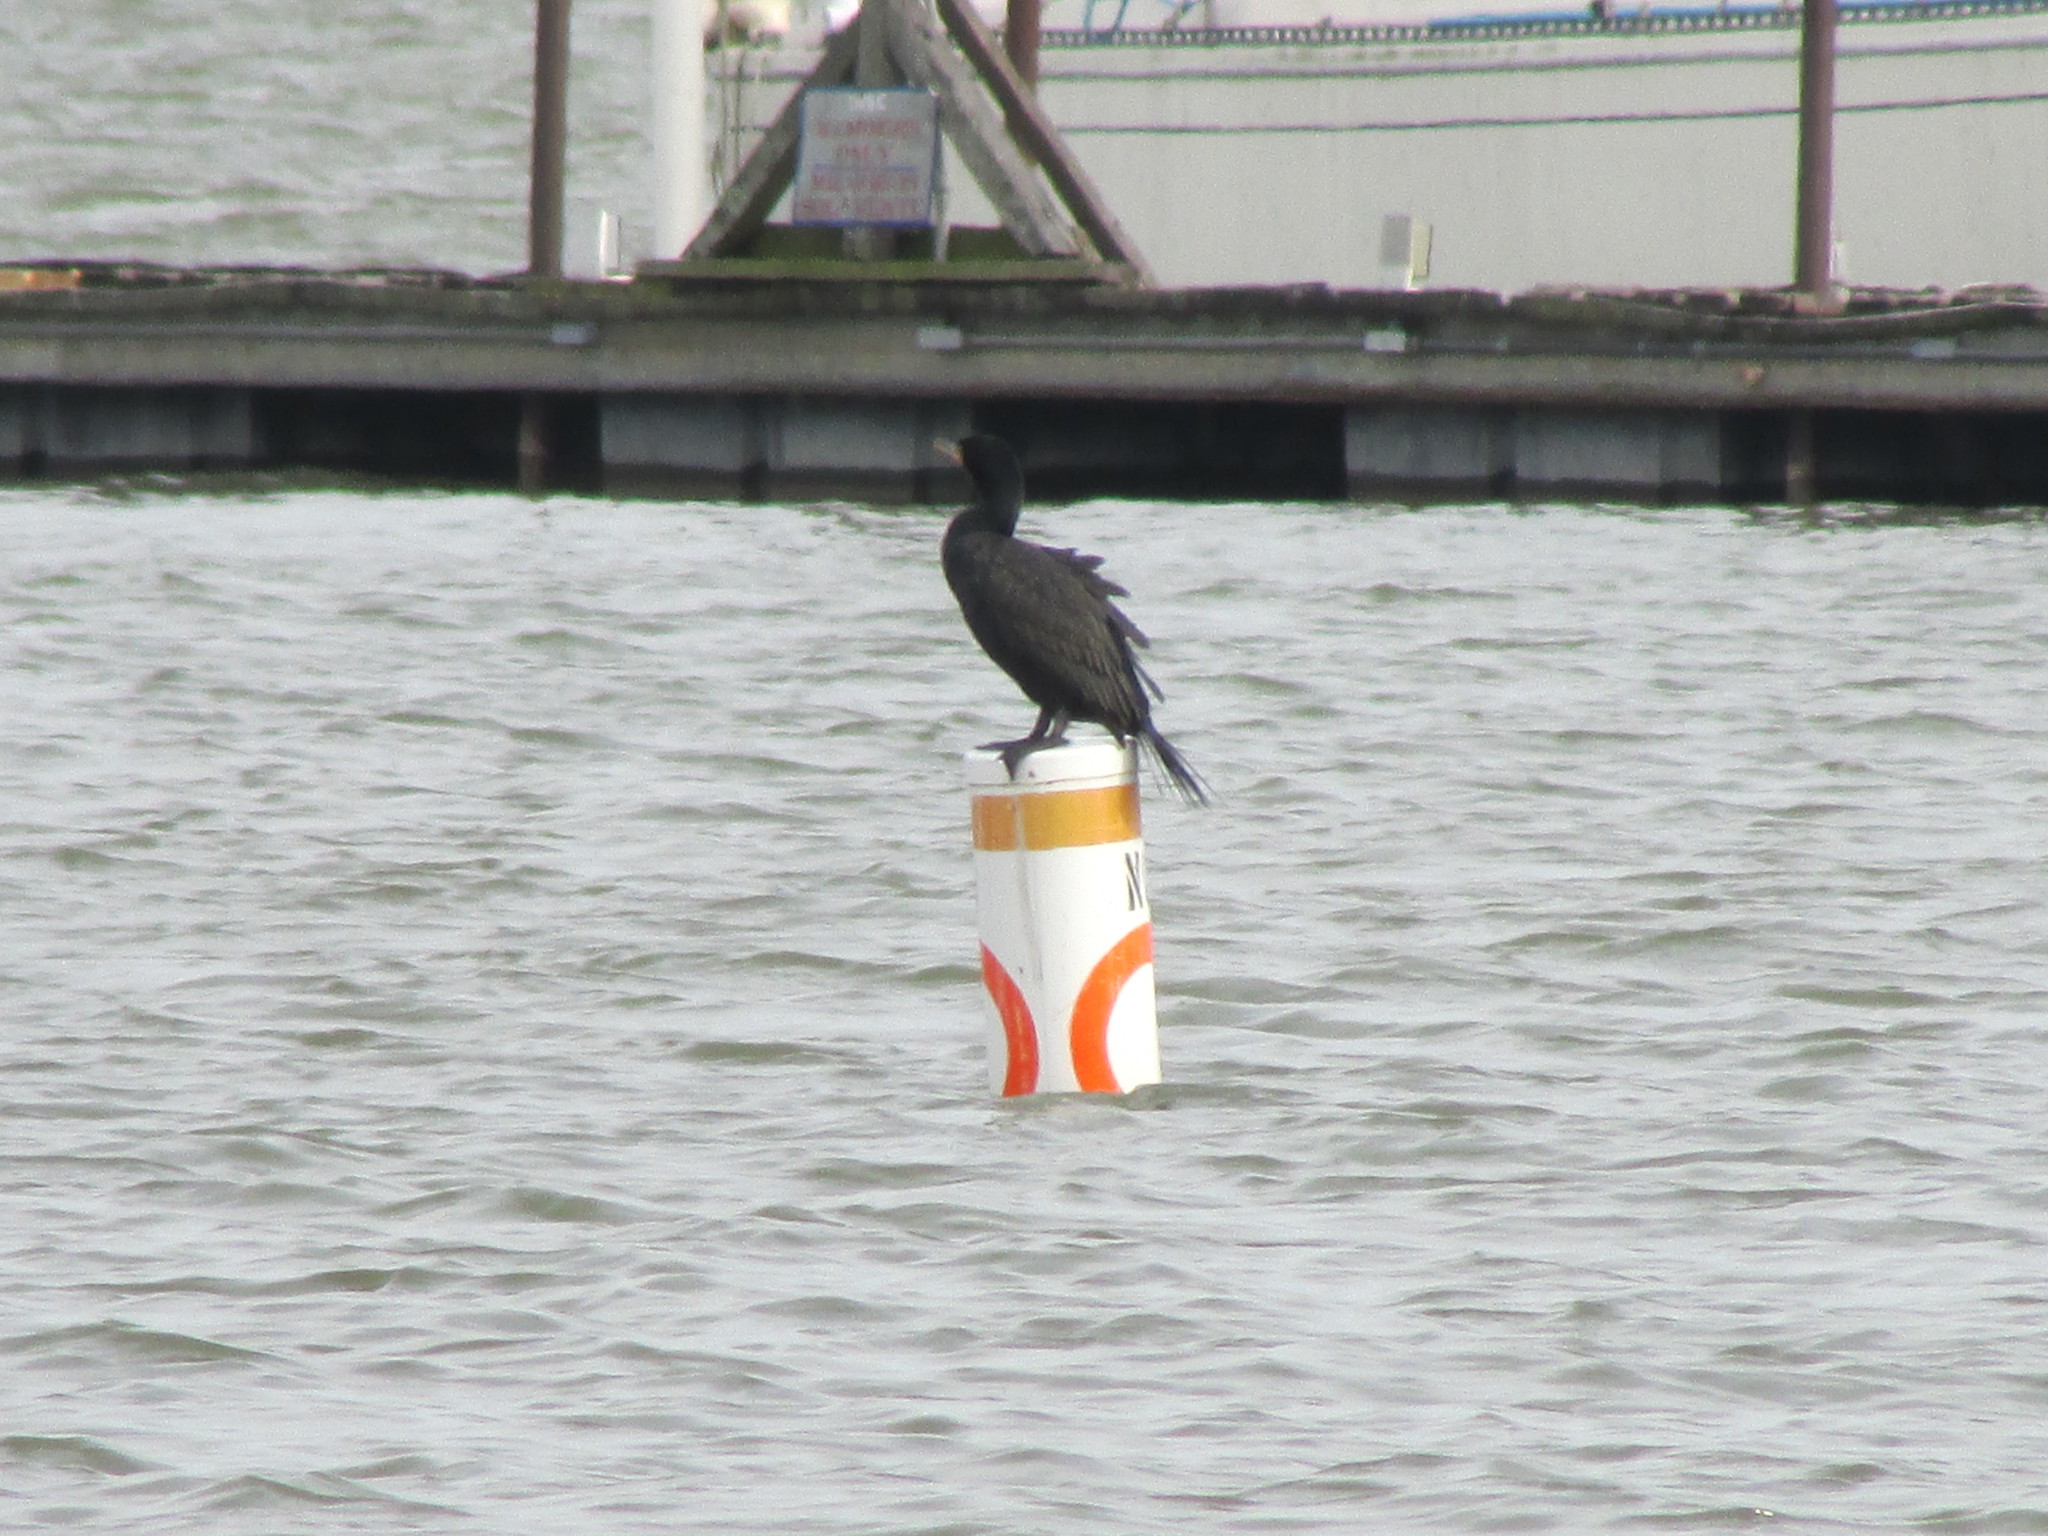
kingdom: Animalia
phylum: Chordata
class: Aves
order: Suliformes
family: Phalacrocoracidae
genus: Phalacrocorax
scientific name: Phalacrocorax auritus
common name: Double-crested cormorant
